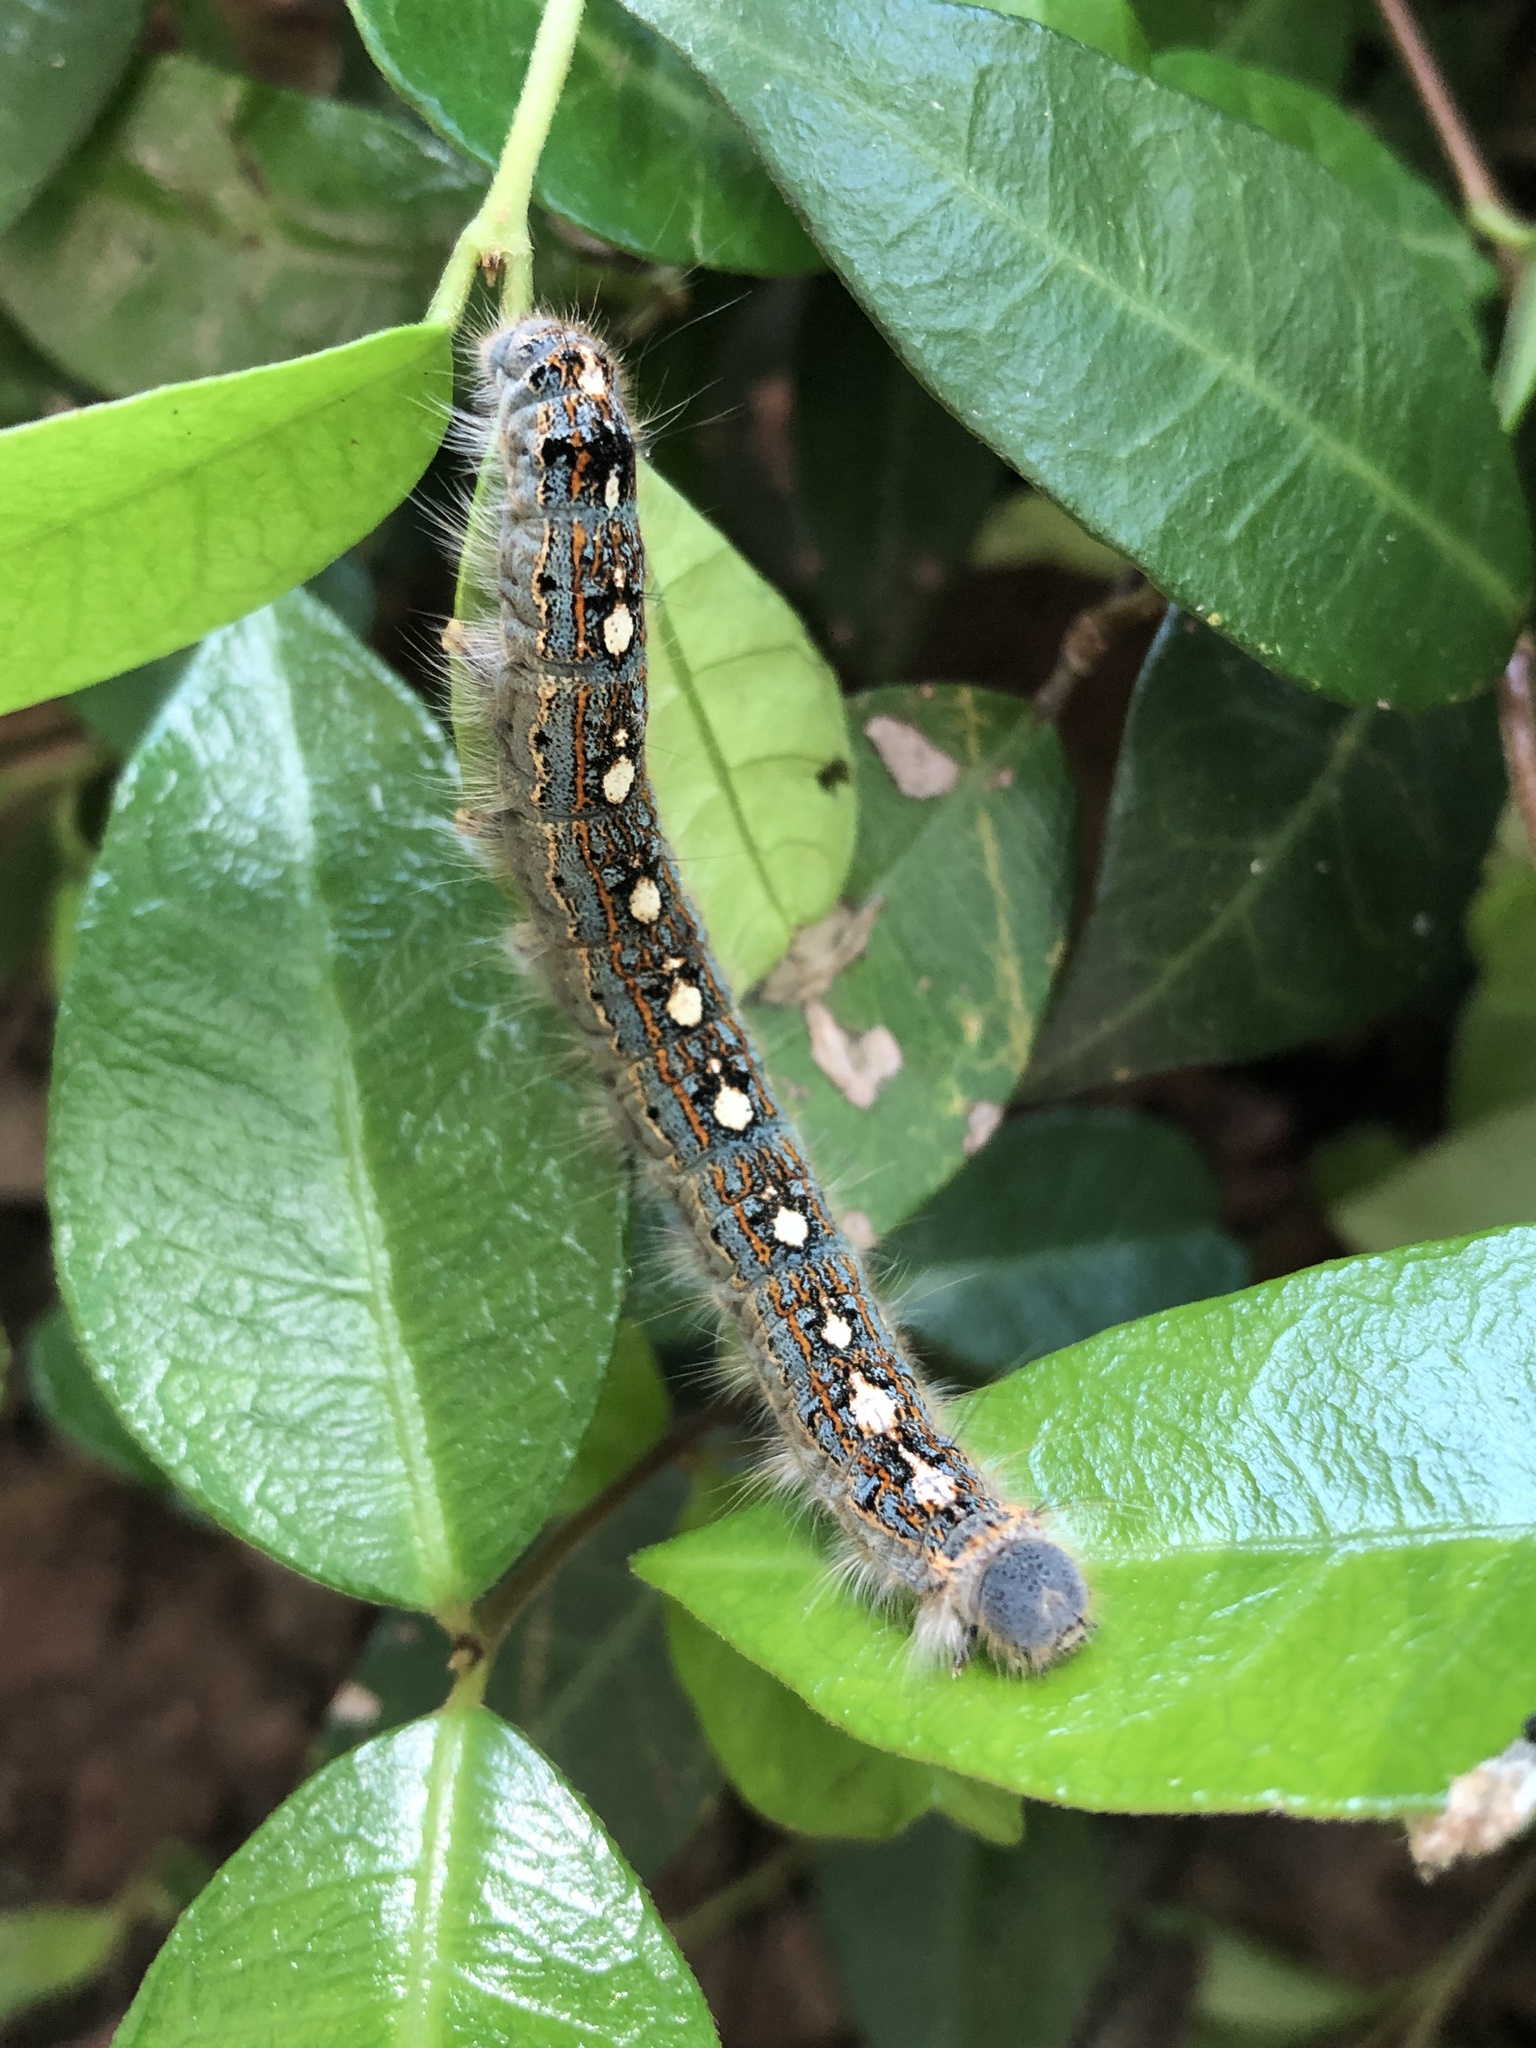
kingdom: Animalia
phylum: Arthropoda
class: Insecta
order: Lepidoptera
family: Lasiocampidae
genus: Malacosoma
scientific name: Malacosoma disstria
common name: Forest tent caterpillar
